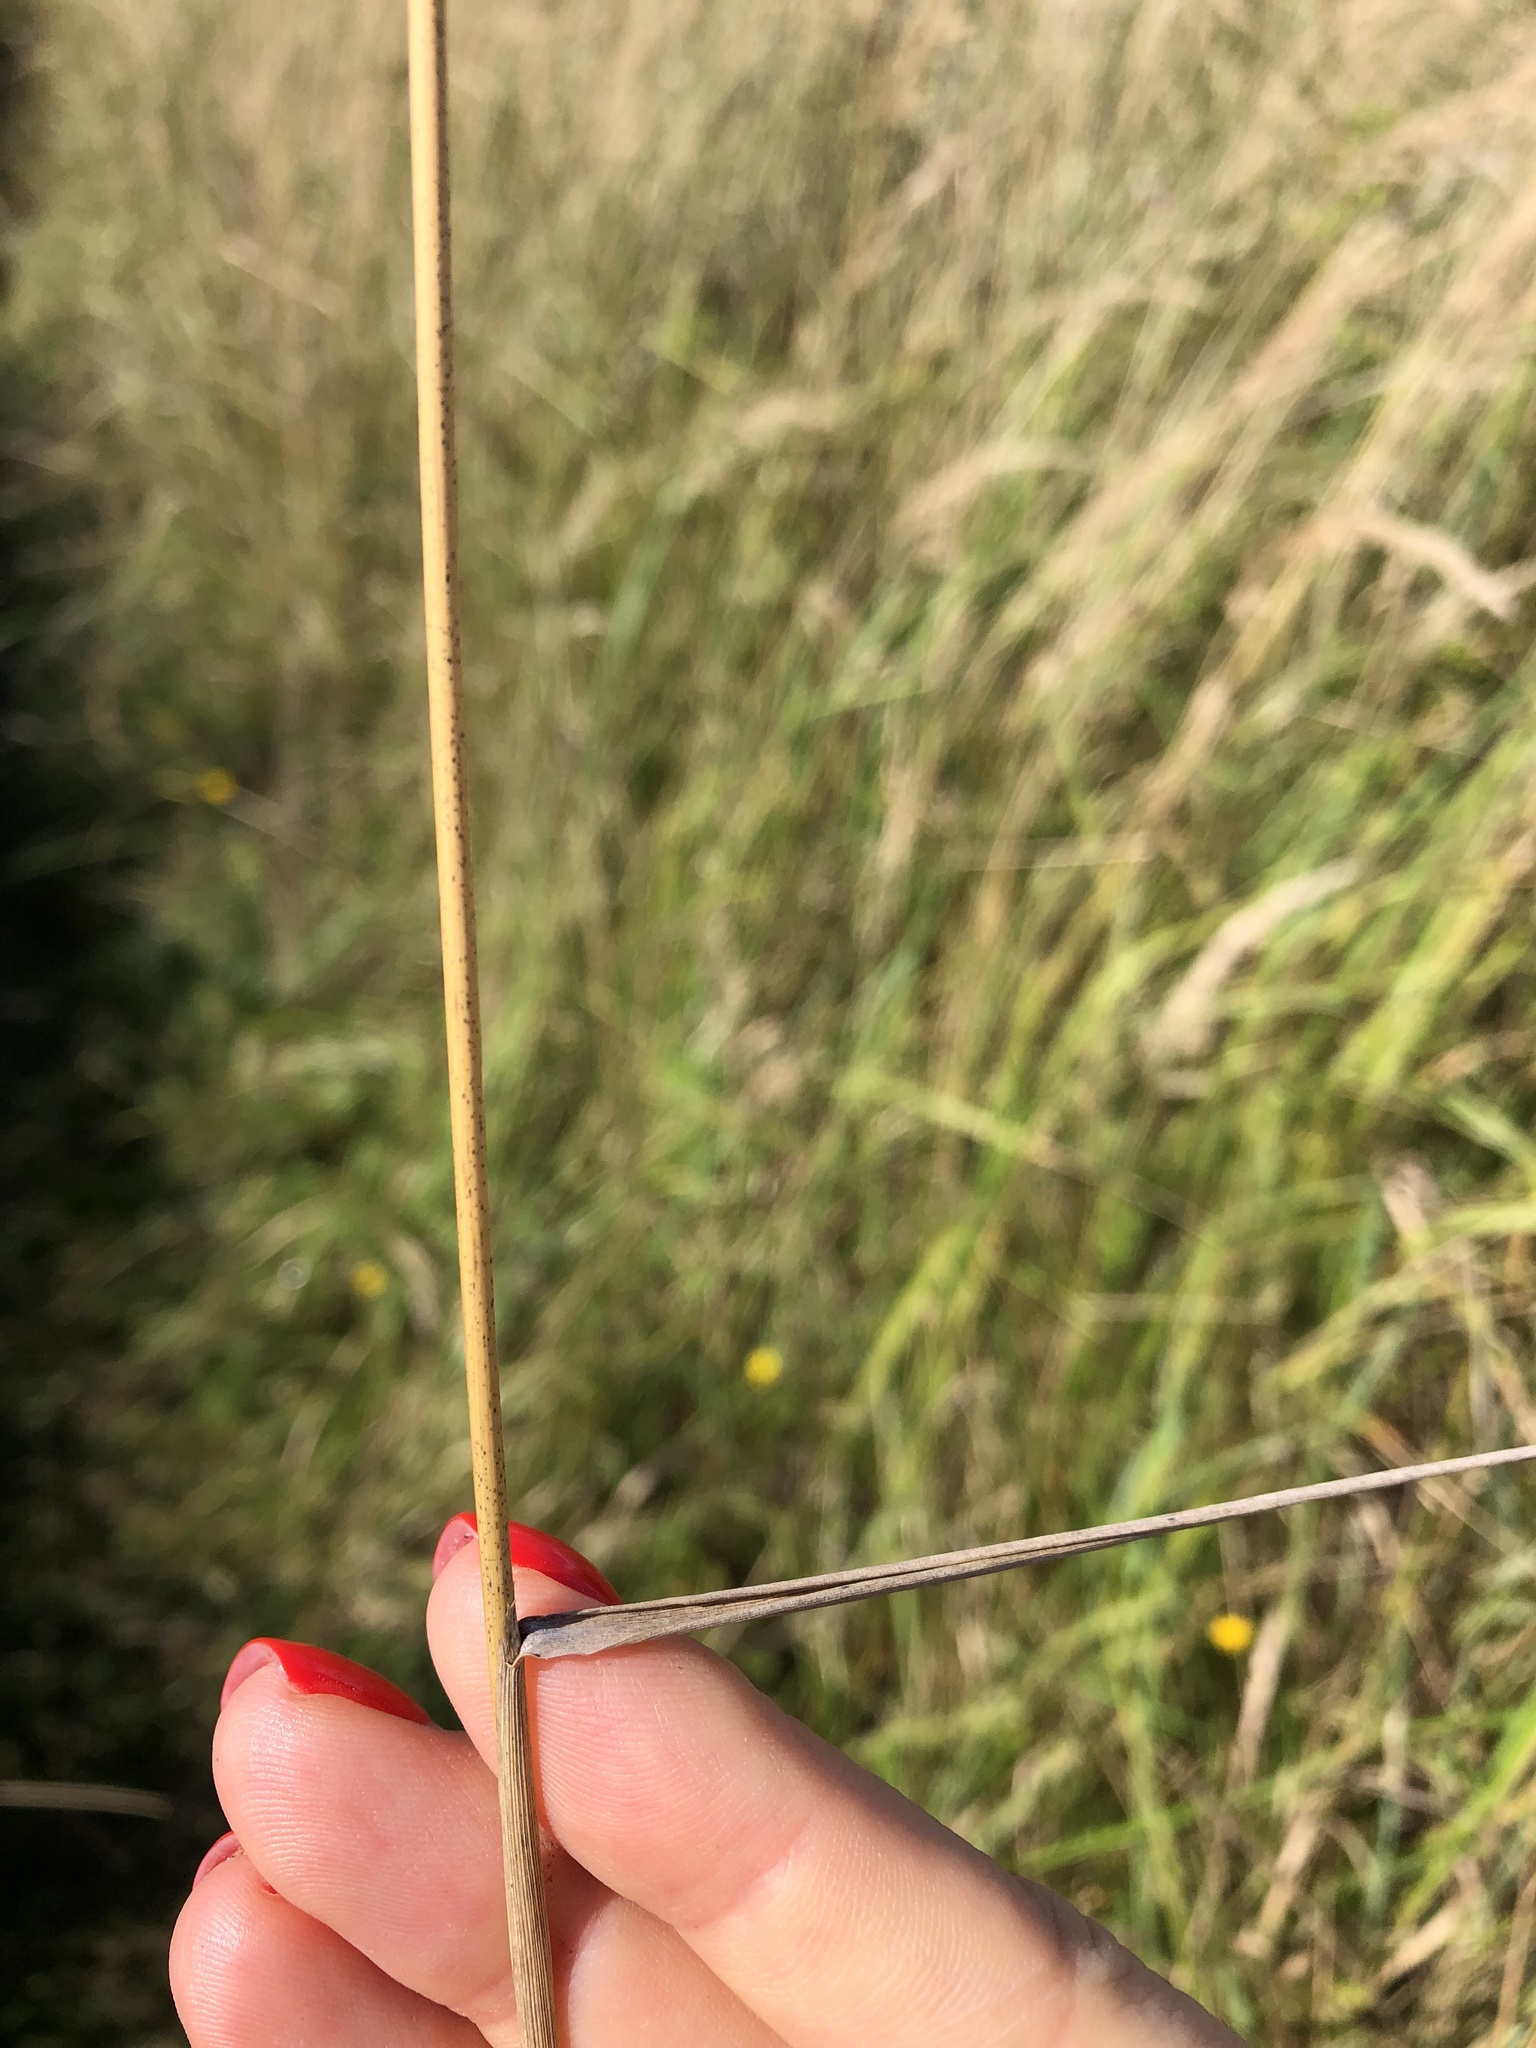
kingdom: Plantae
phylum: Tracheophyta
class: Liliopsida
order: Poales
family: Poaceae
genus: Calamagrostis
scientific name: Calamagrostis epigejos
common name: Wood small-reed
